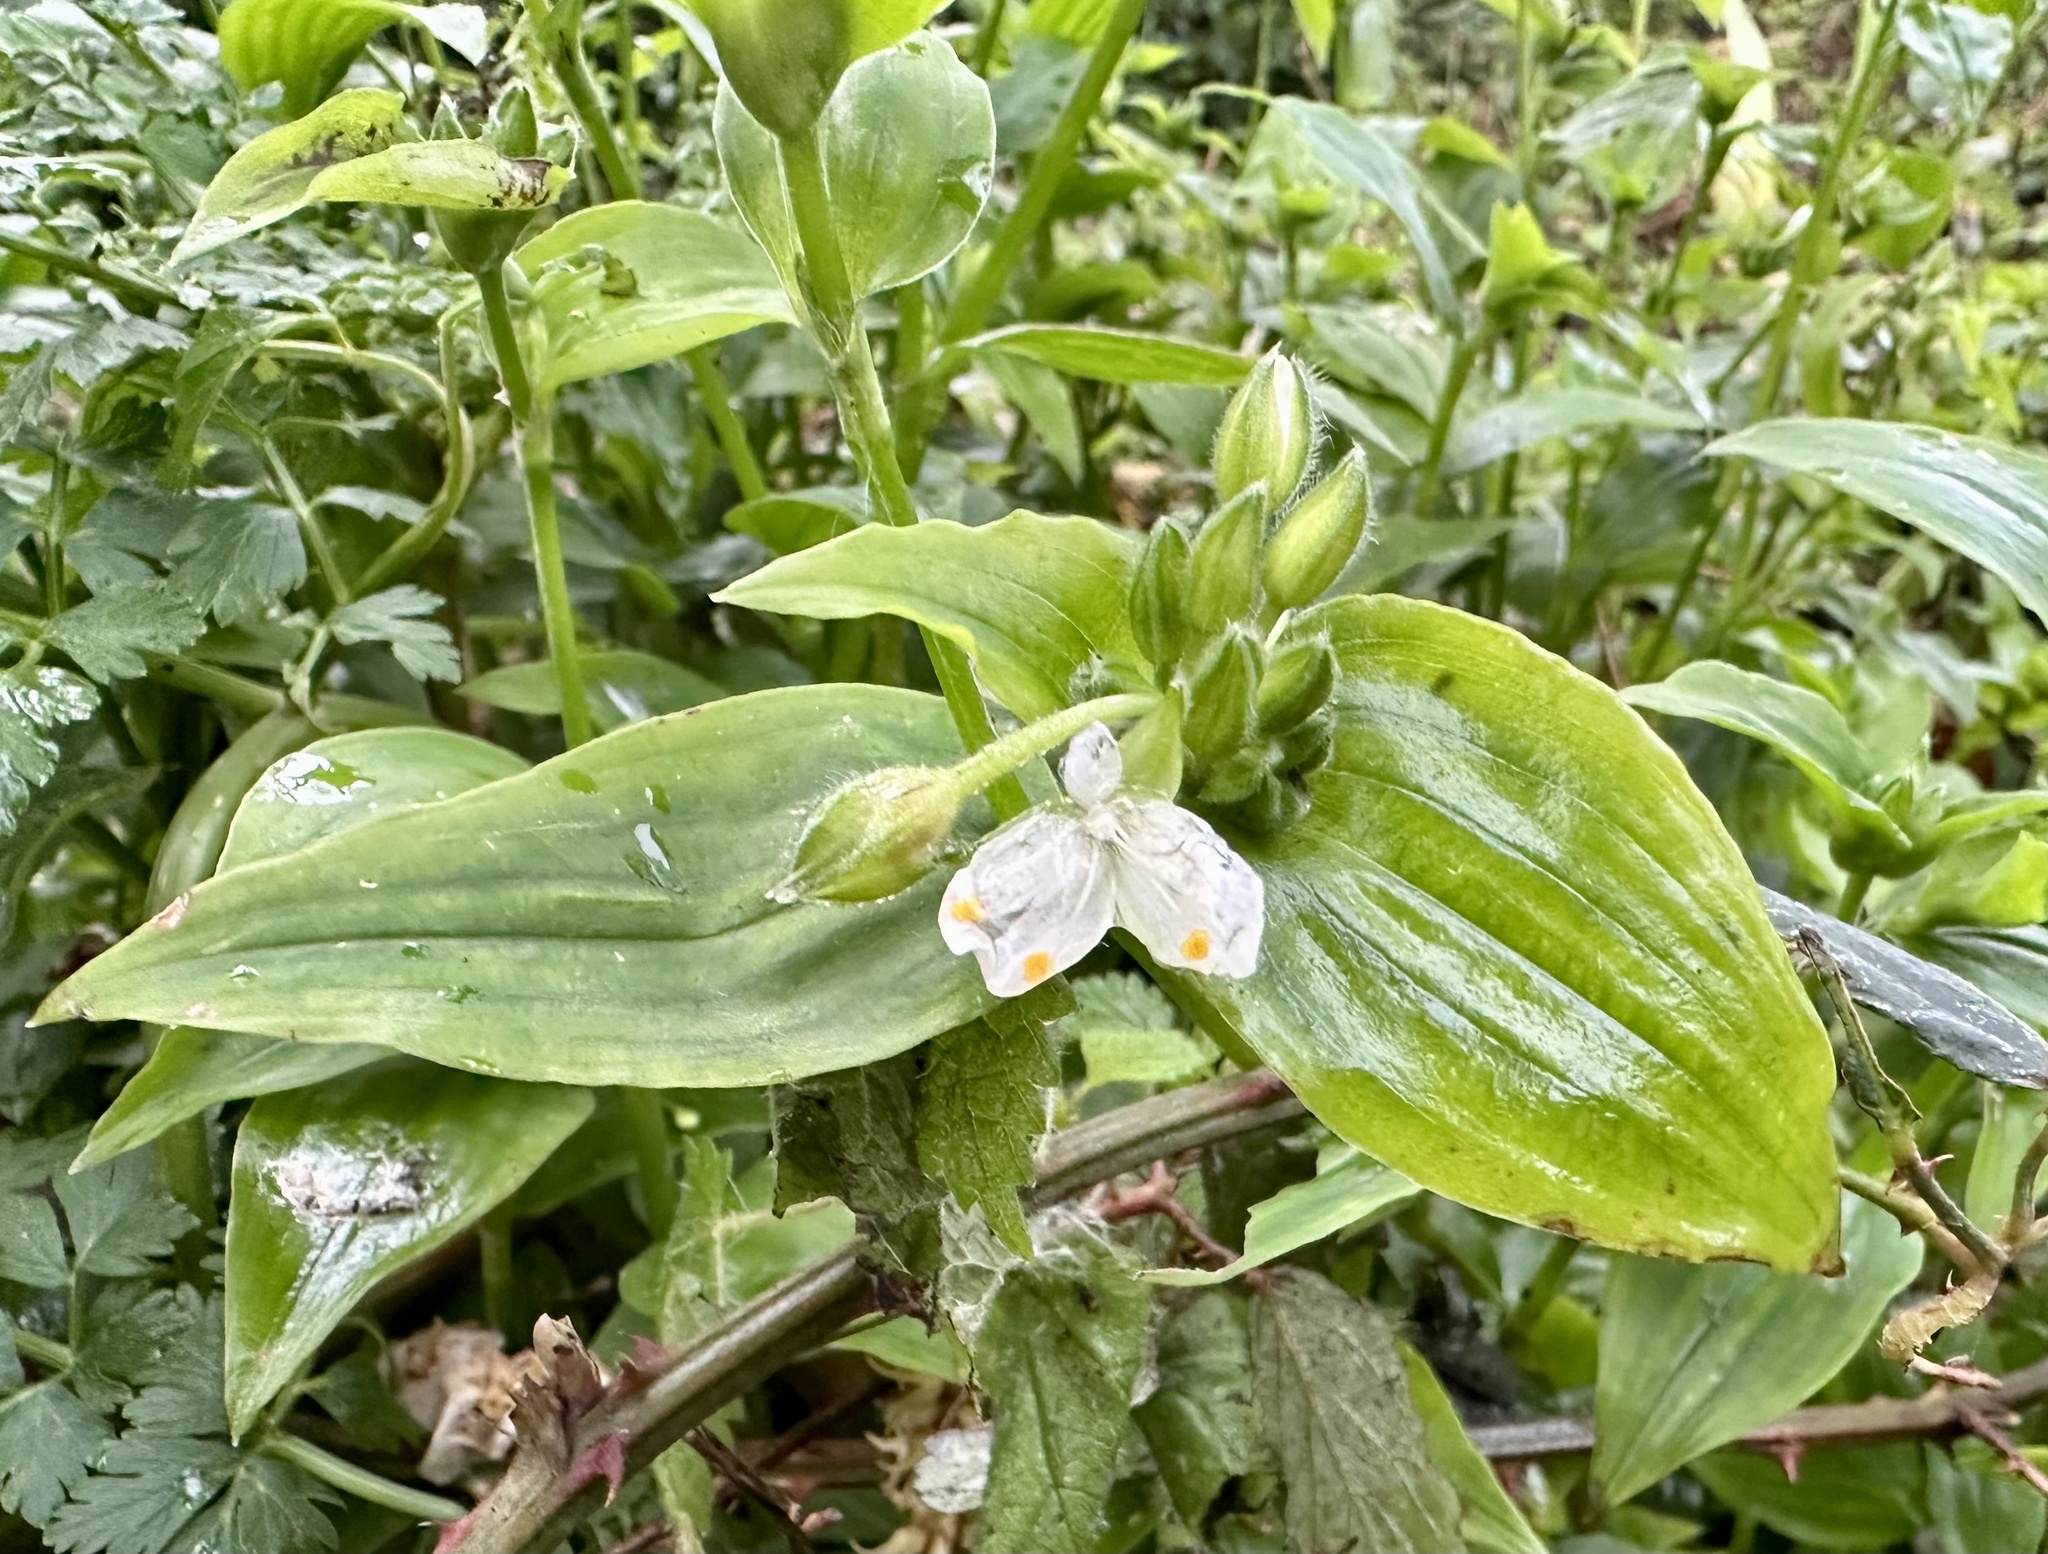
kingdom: Plantae
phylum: Tracheophyta
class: Liliopsida
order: Commelinales
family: Commelinaceae
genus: Tradescantia
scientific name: Tradescantia fluminensis
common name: Wandering-jew
